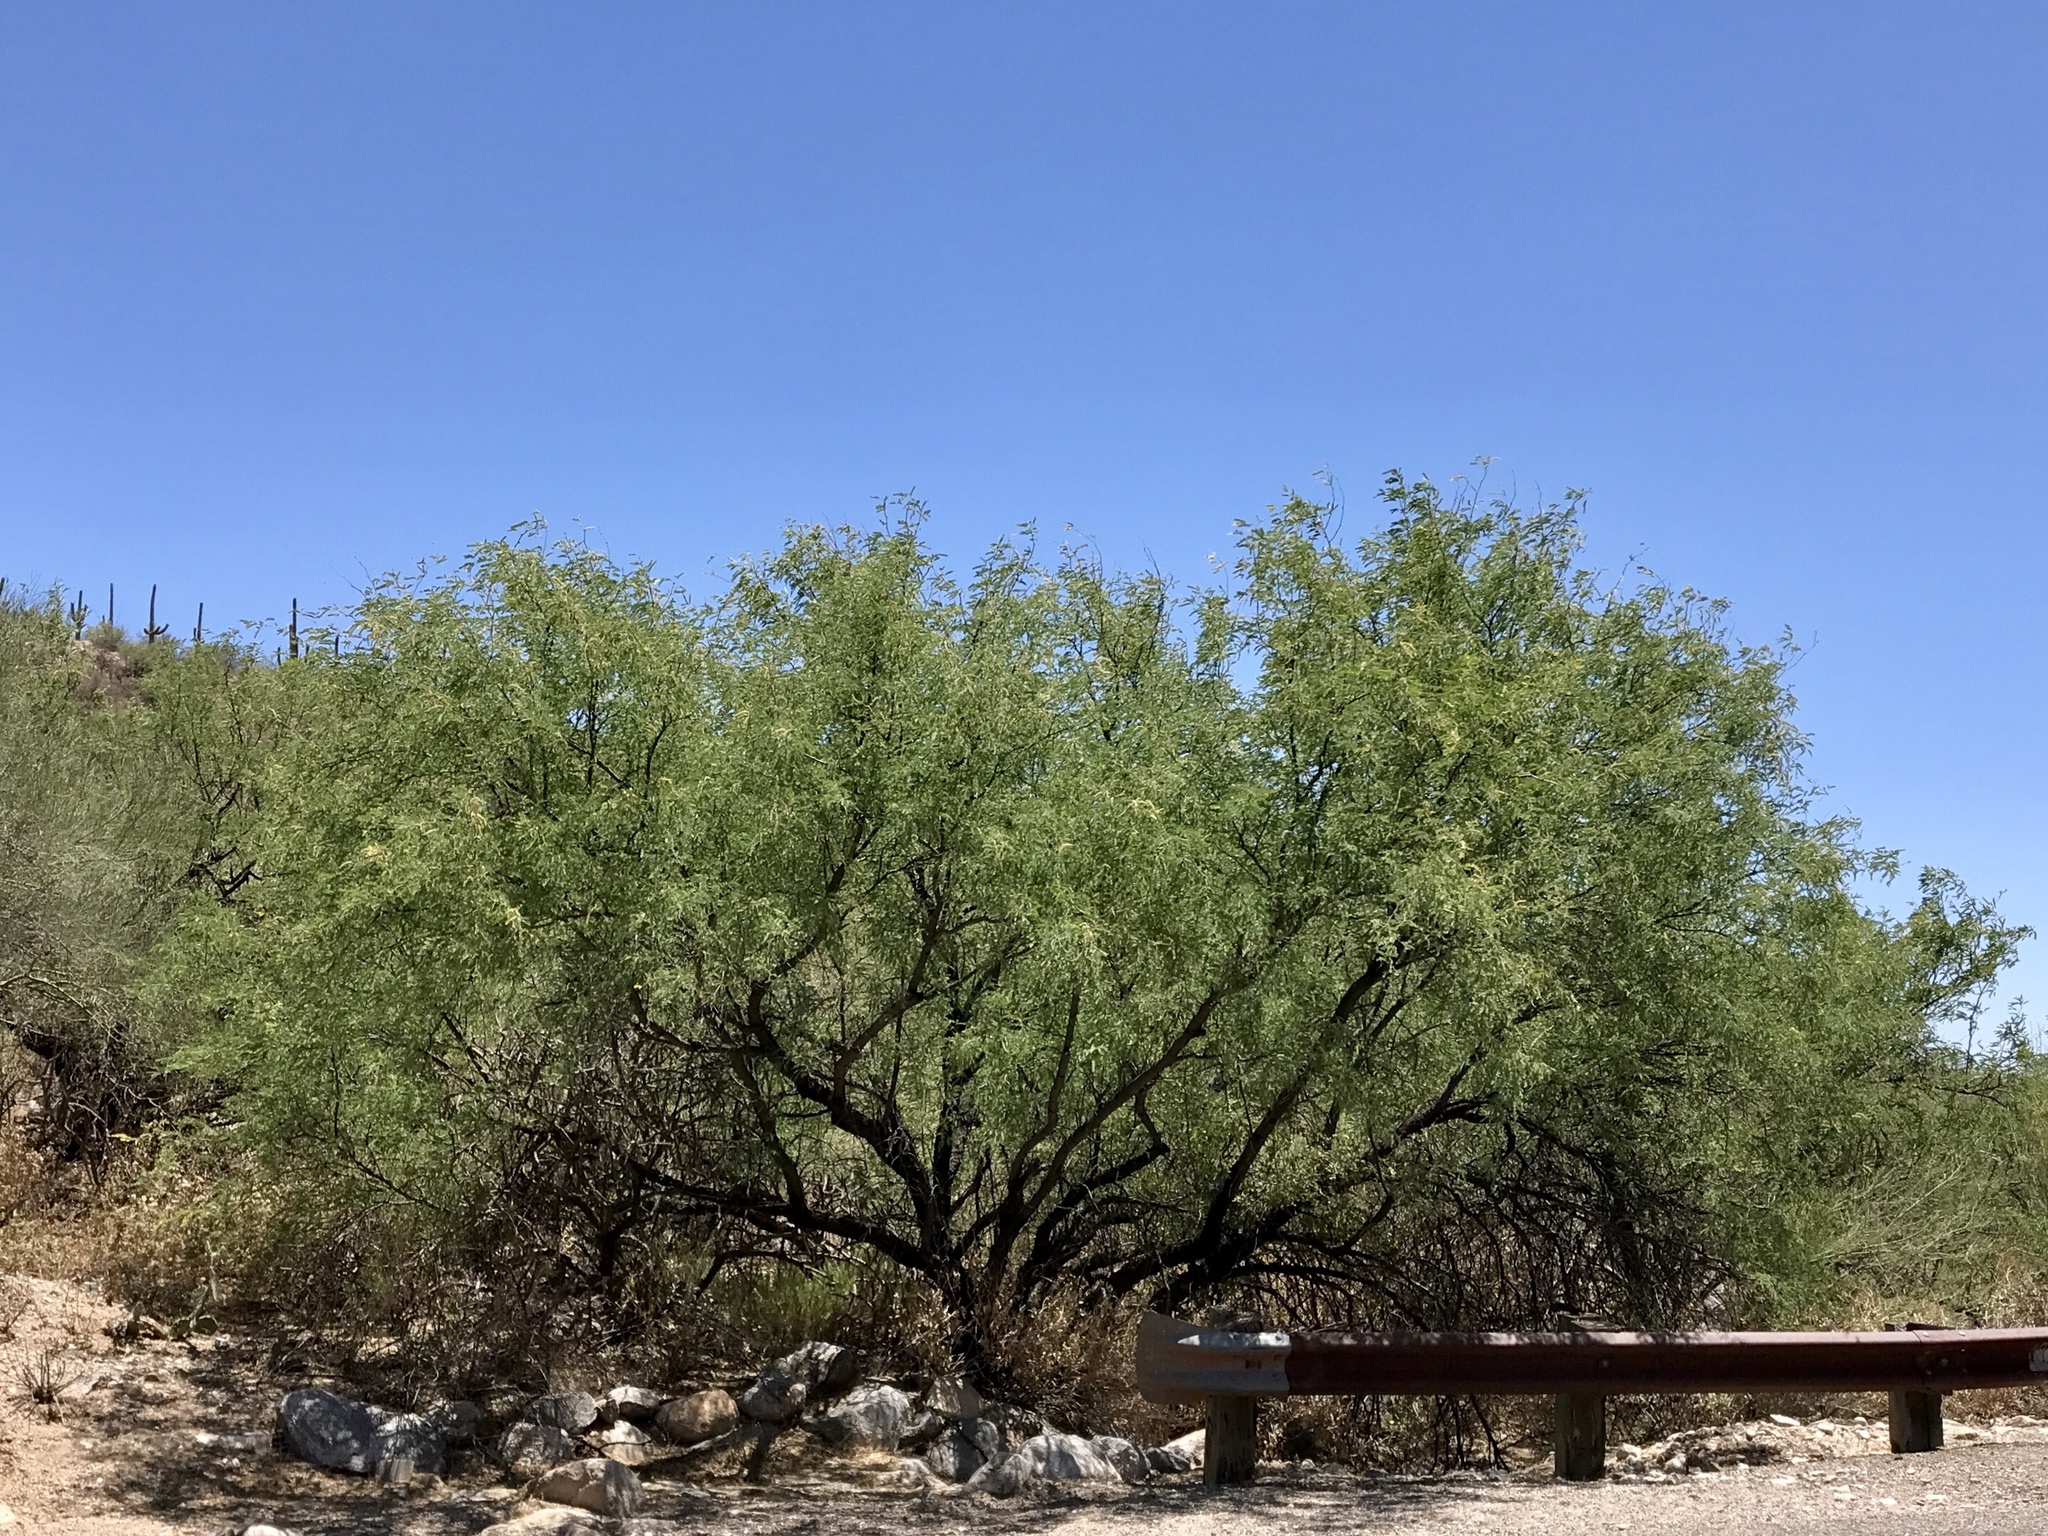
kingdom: Plantae
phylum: Tracheophyta
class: Magnoliopsida
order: Fabales
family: Fabaceae
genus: Prosopis
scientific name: Prosopis velutina
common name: Velvet mesquite
